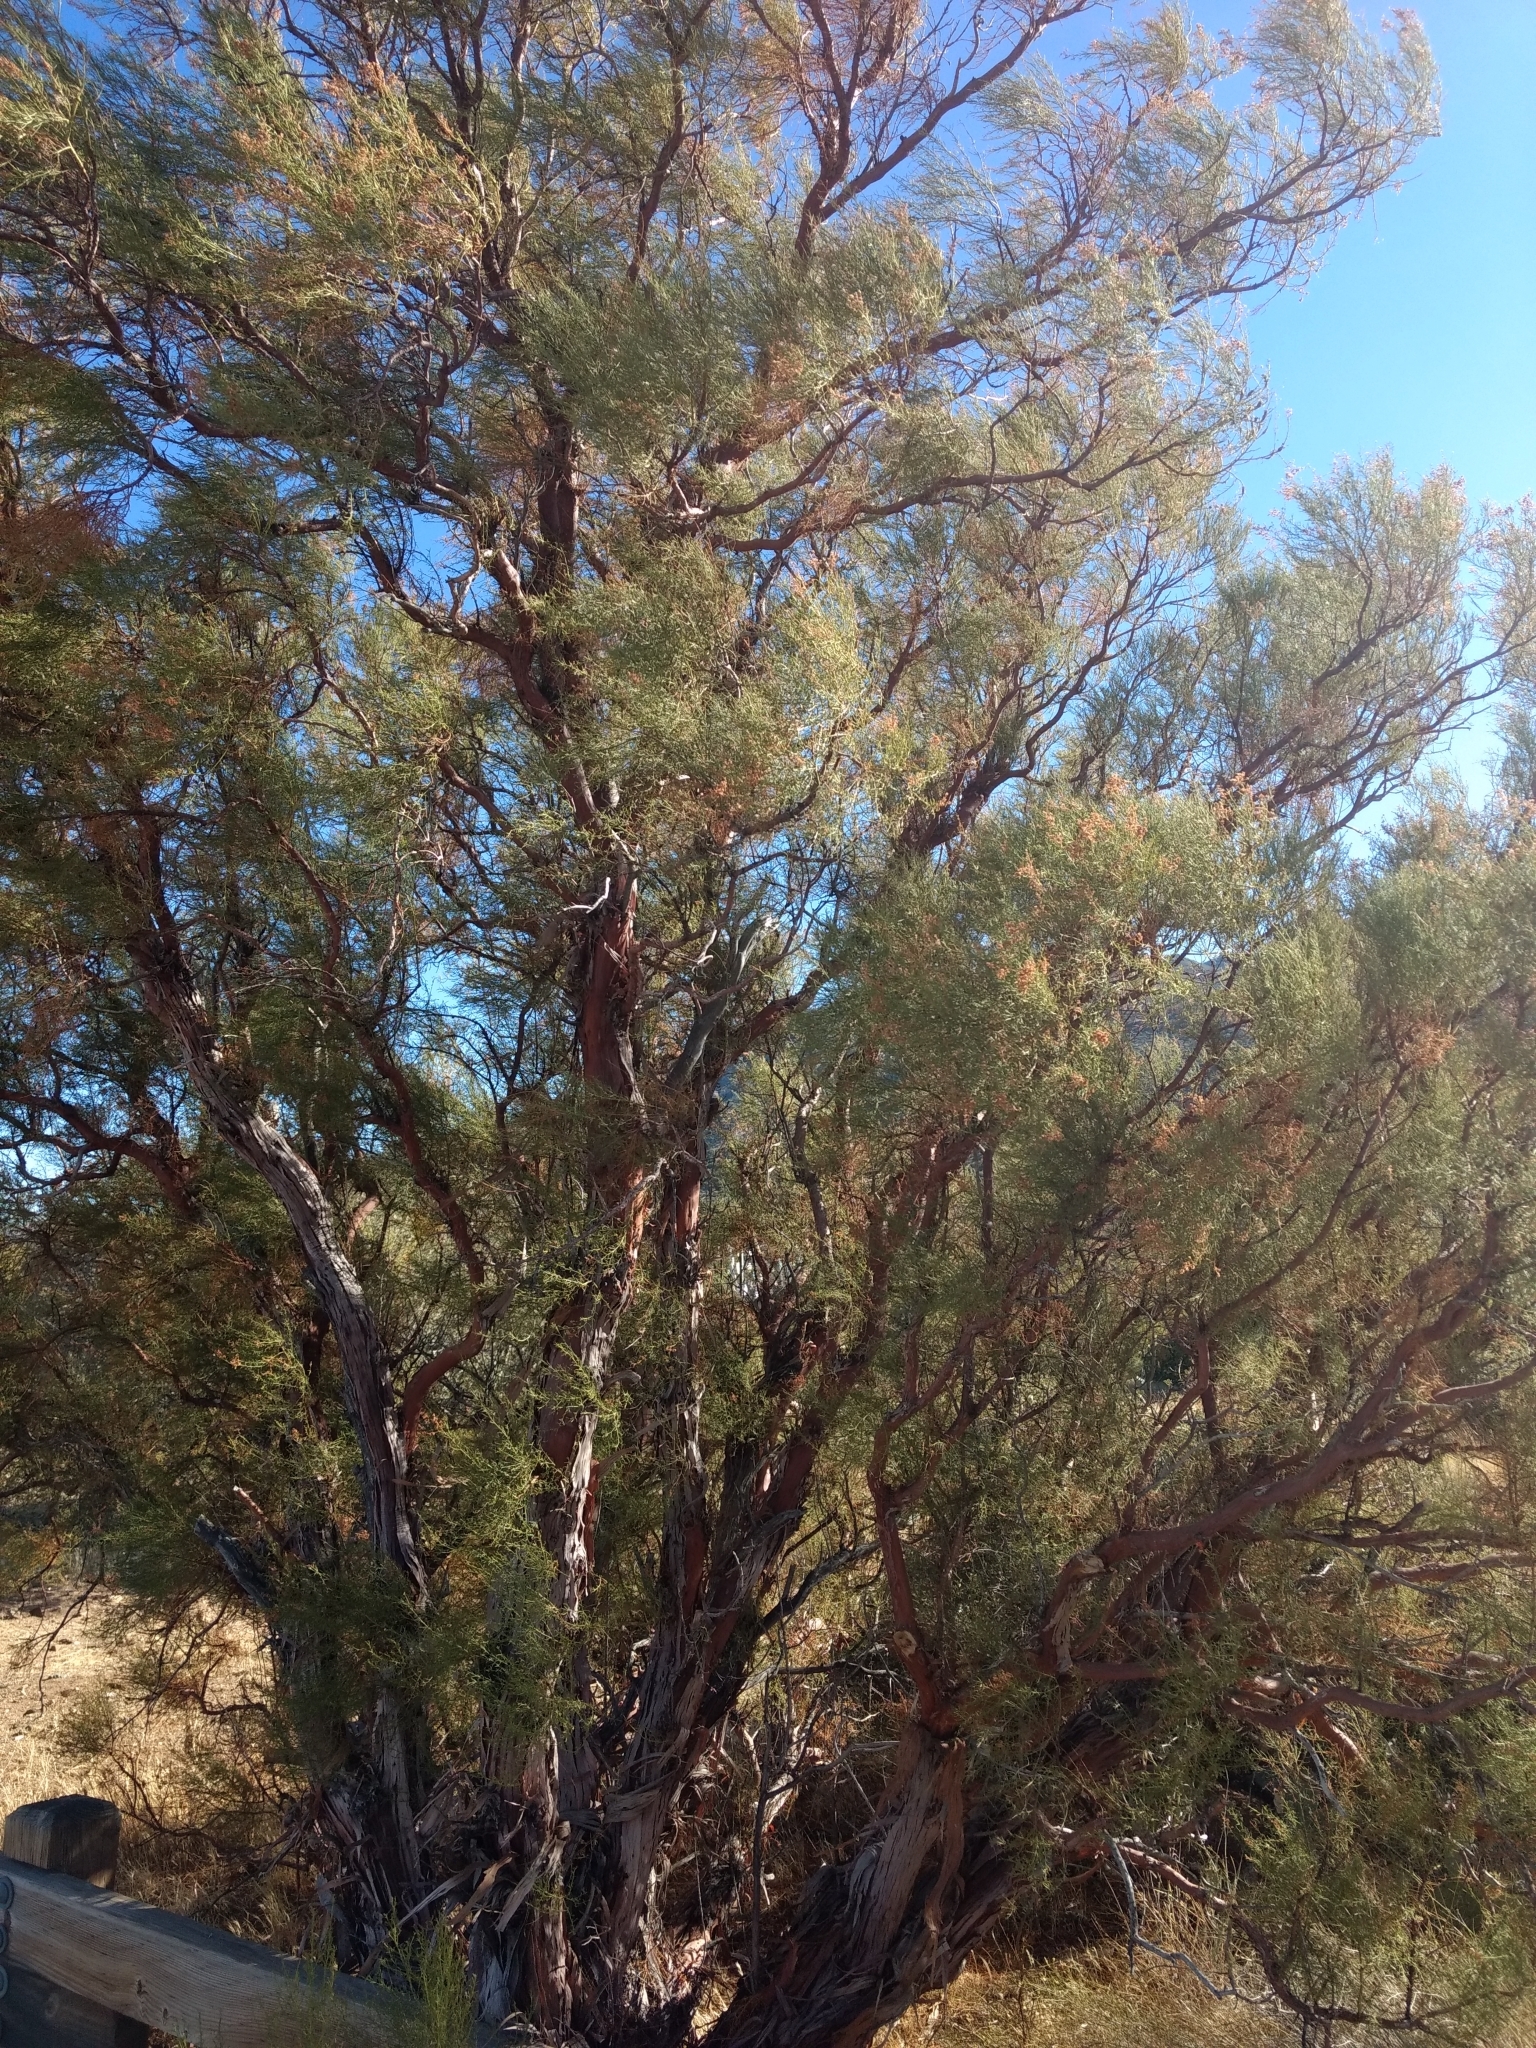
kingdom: Plantae
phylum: Tracheophyta
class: Magnoliopsida
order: Rosales
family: Rosaceae
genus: Adenostoma
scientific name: Adenostoma sparsifolium
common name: Red shank
